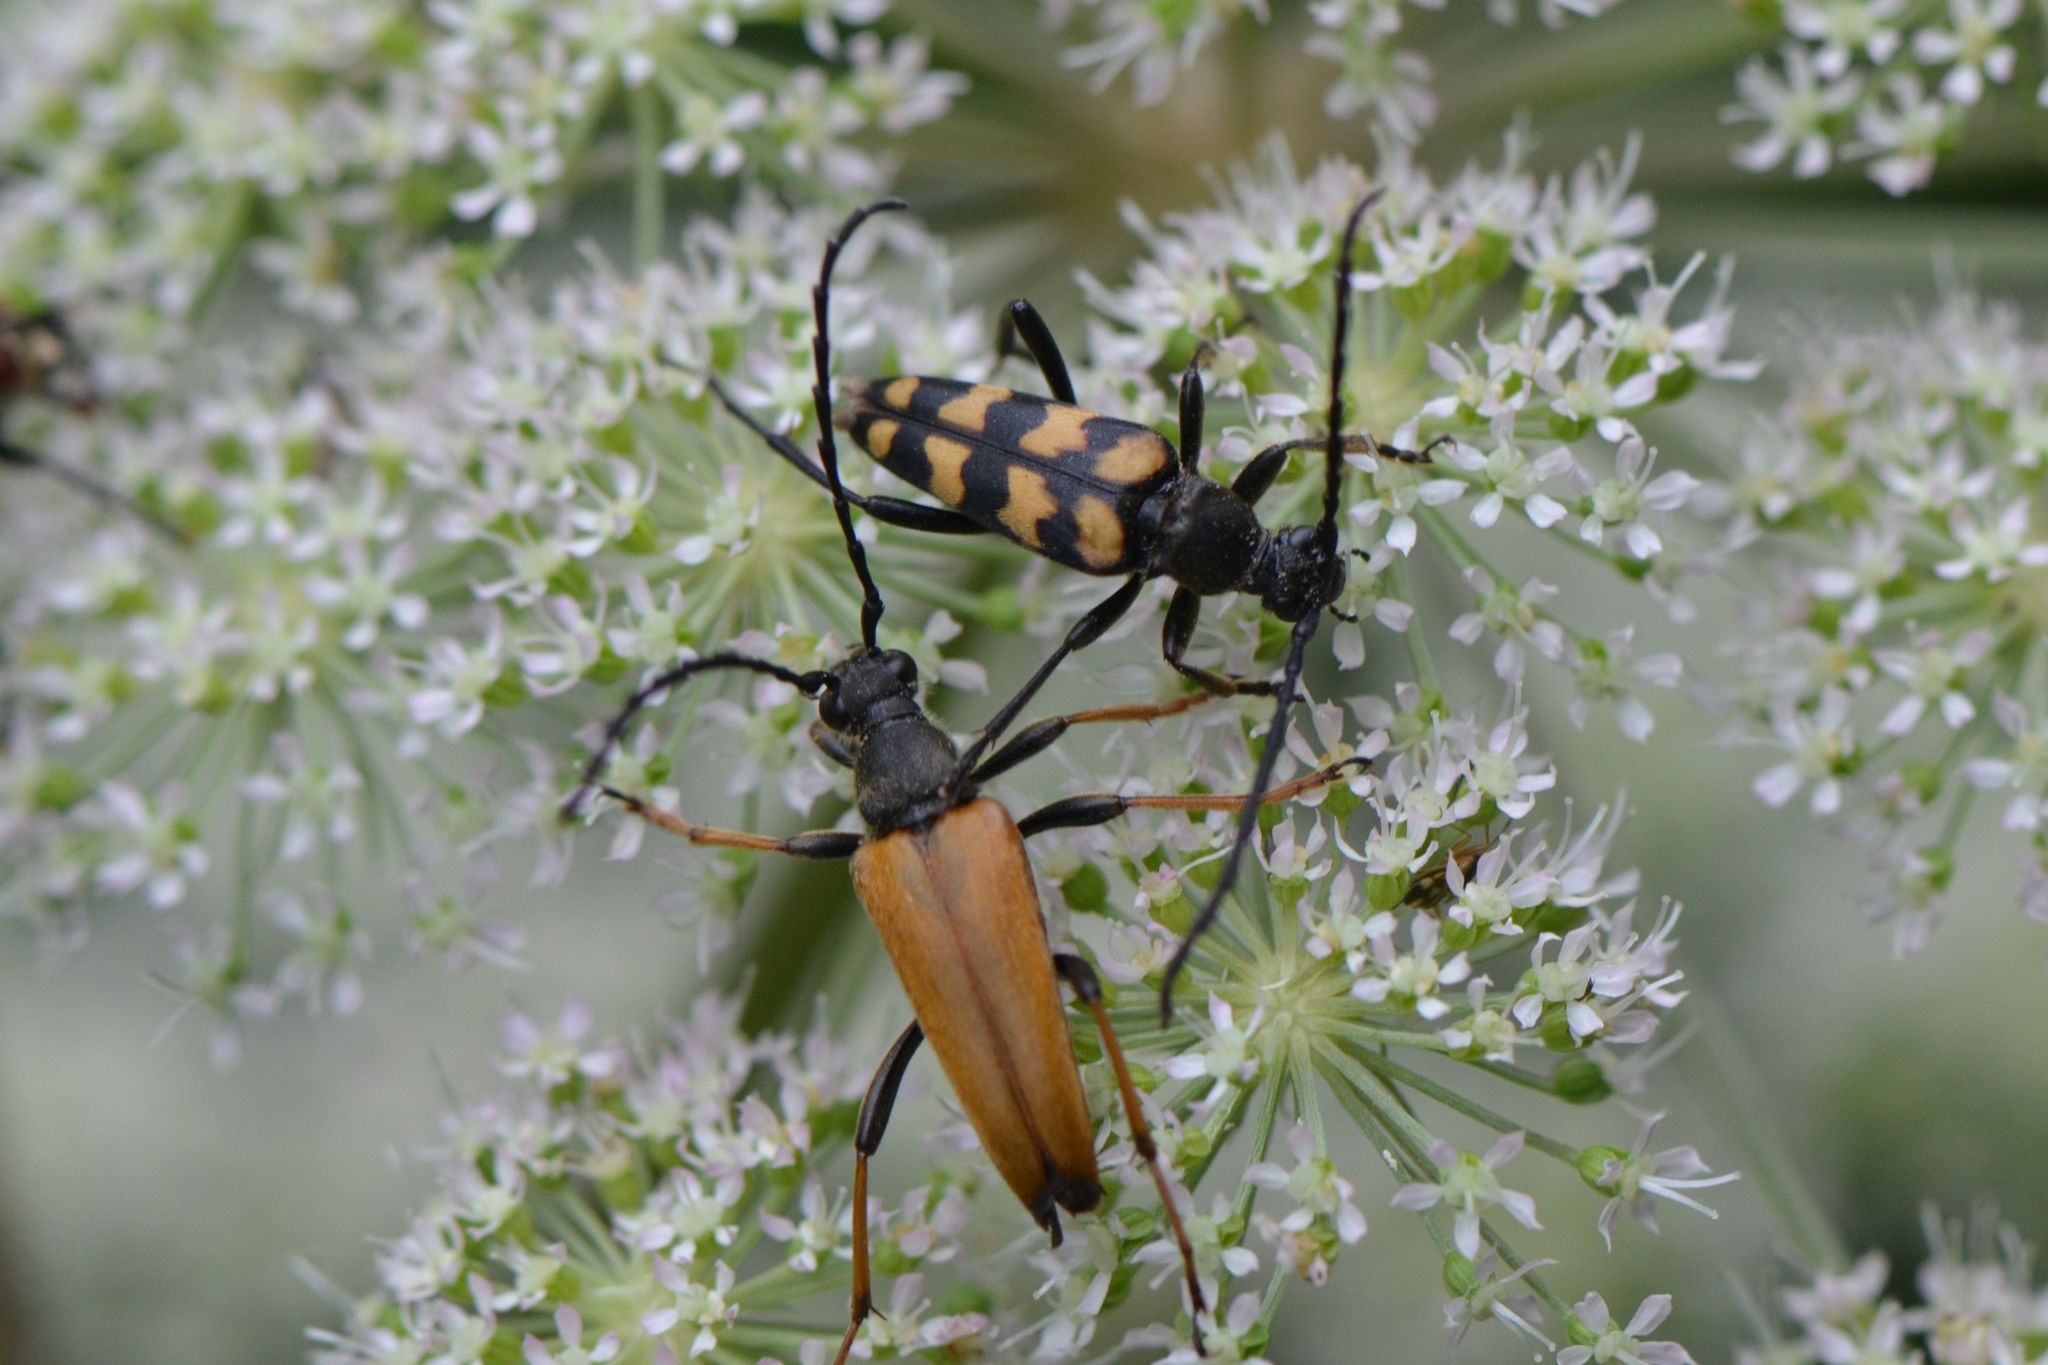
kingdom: Animalia
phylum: Arthropoda
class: Insecta
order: Coleoptera
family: Cerambycidae
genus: Stictoleptura
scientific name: Stictoleptura rubra
